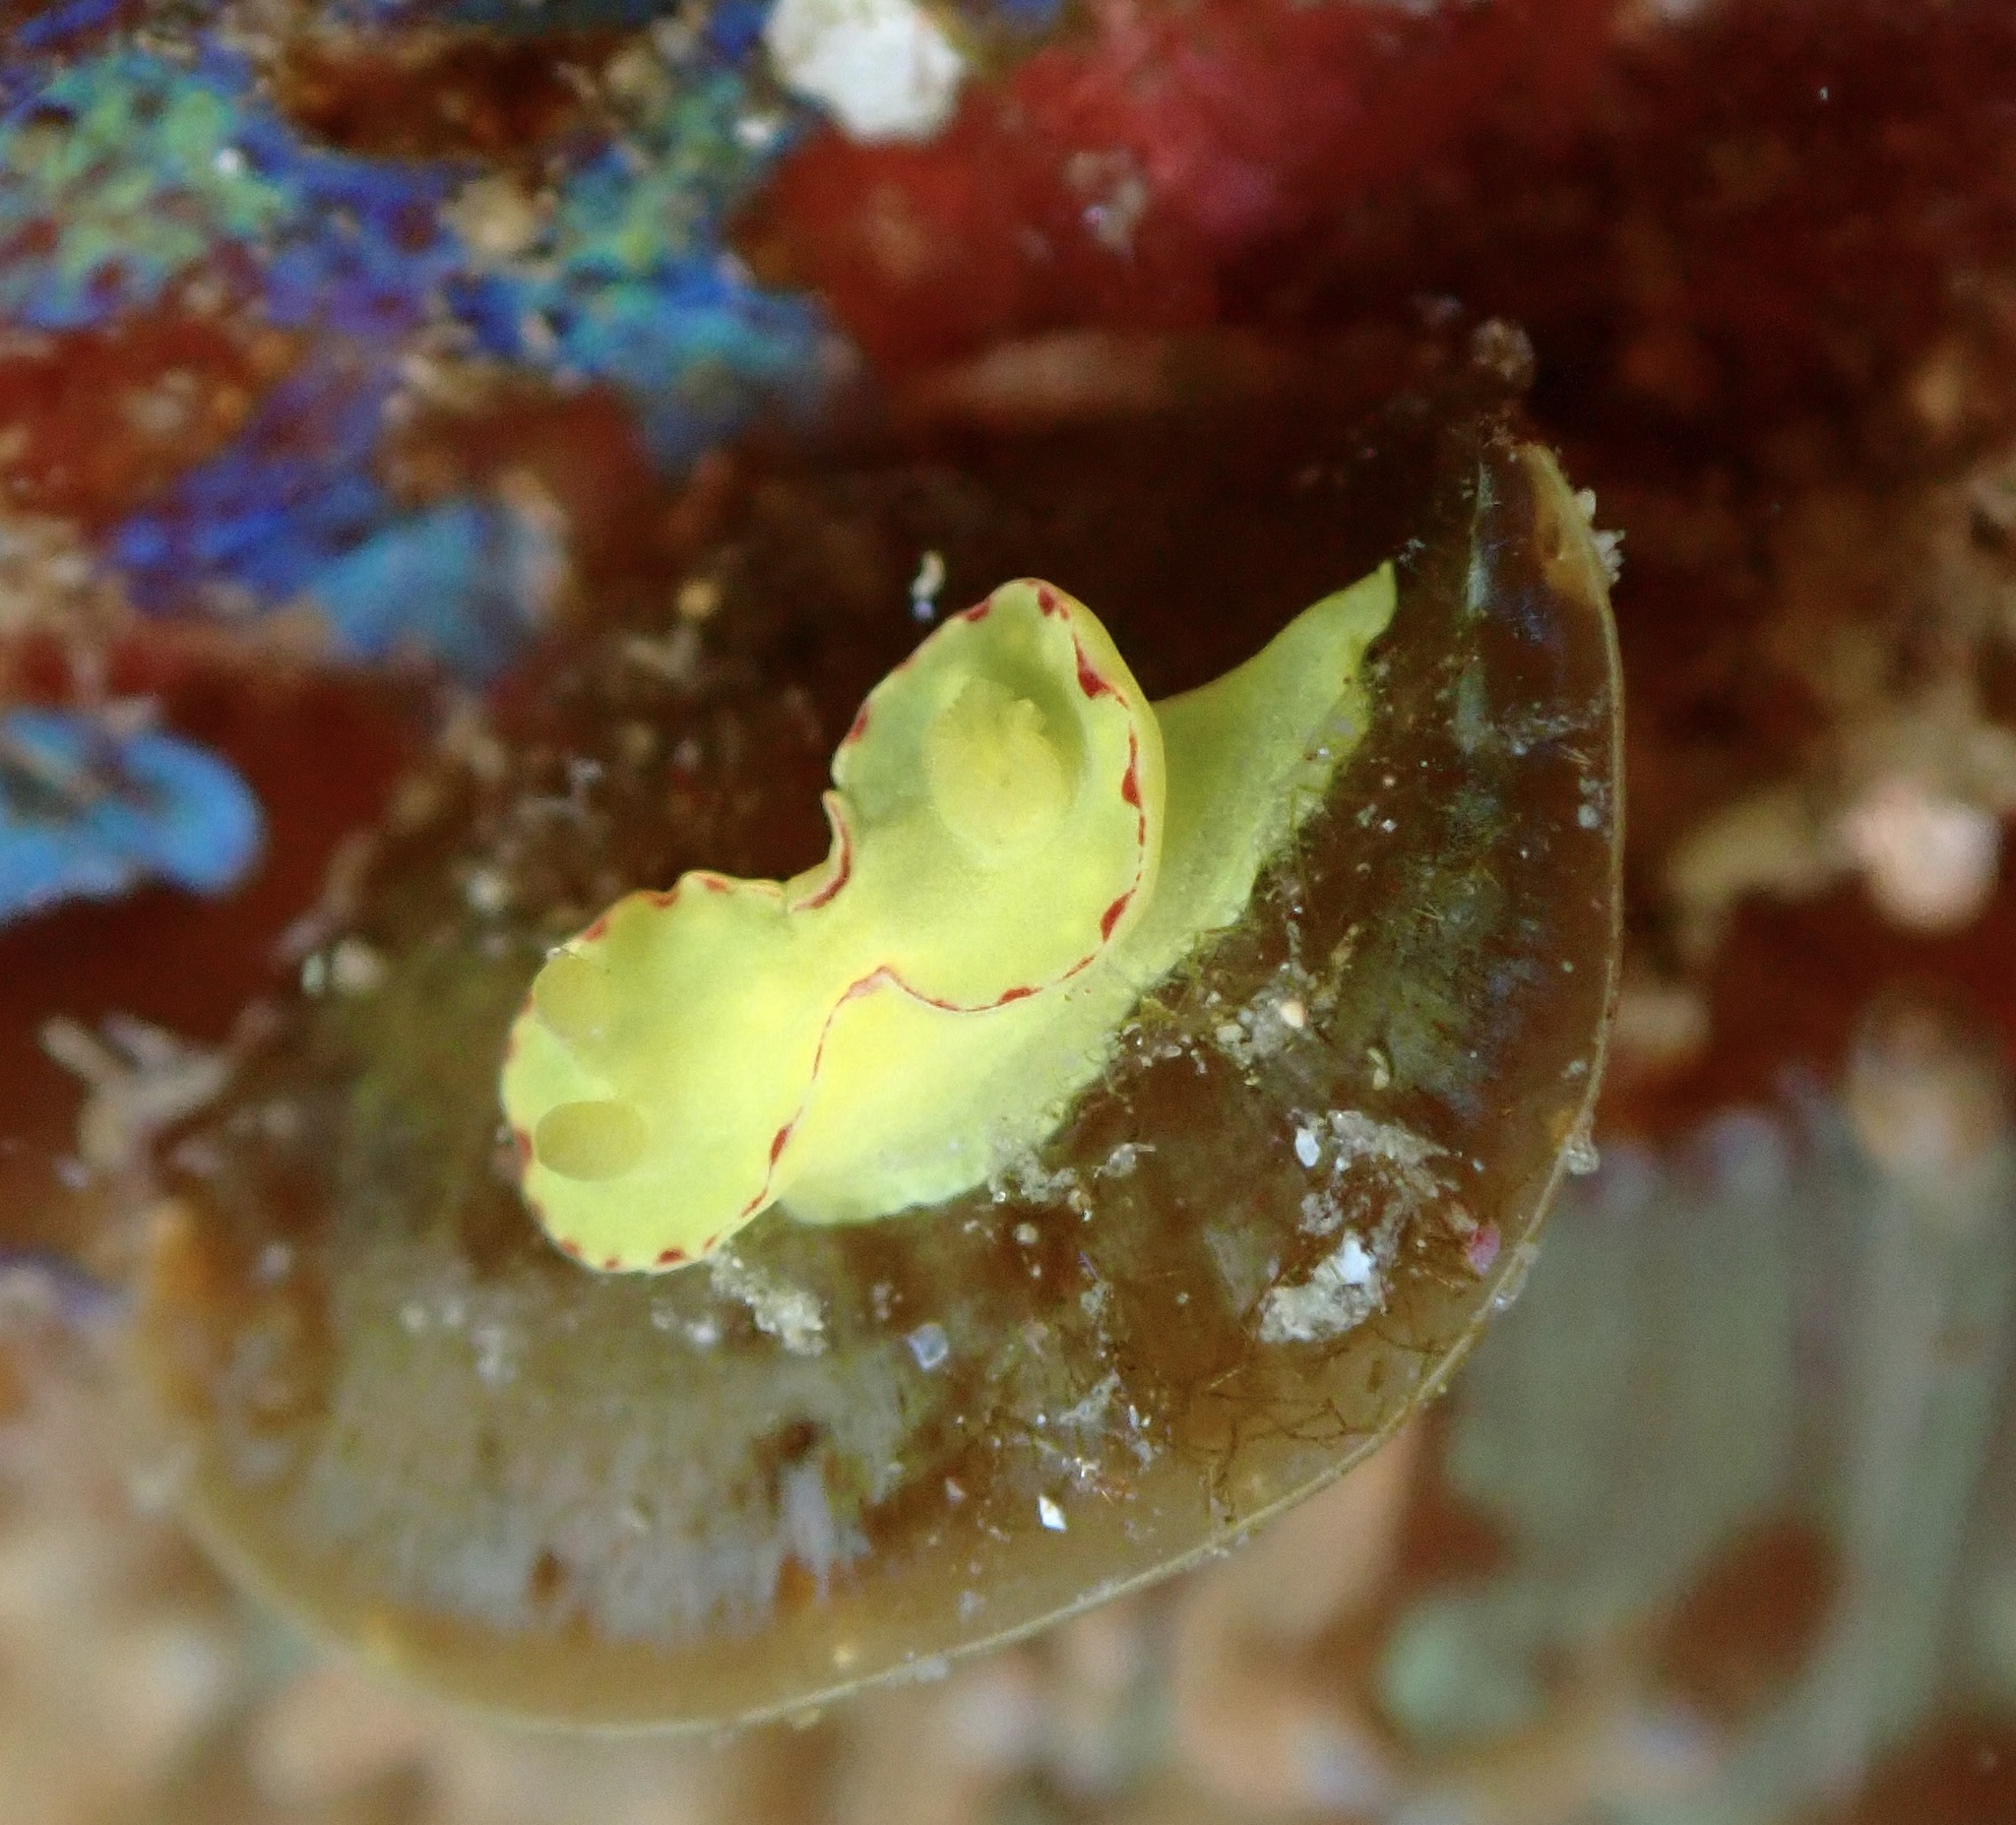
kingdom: Animalia
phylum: Mollusca
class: Gastropoda
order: Nudibranchia
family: Chromodorididae
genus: Diversidoris
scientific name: Diversidoris flava
